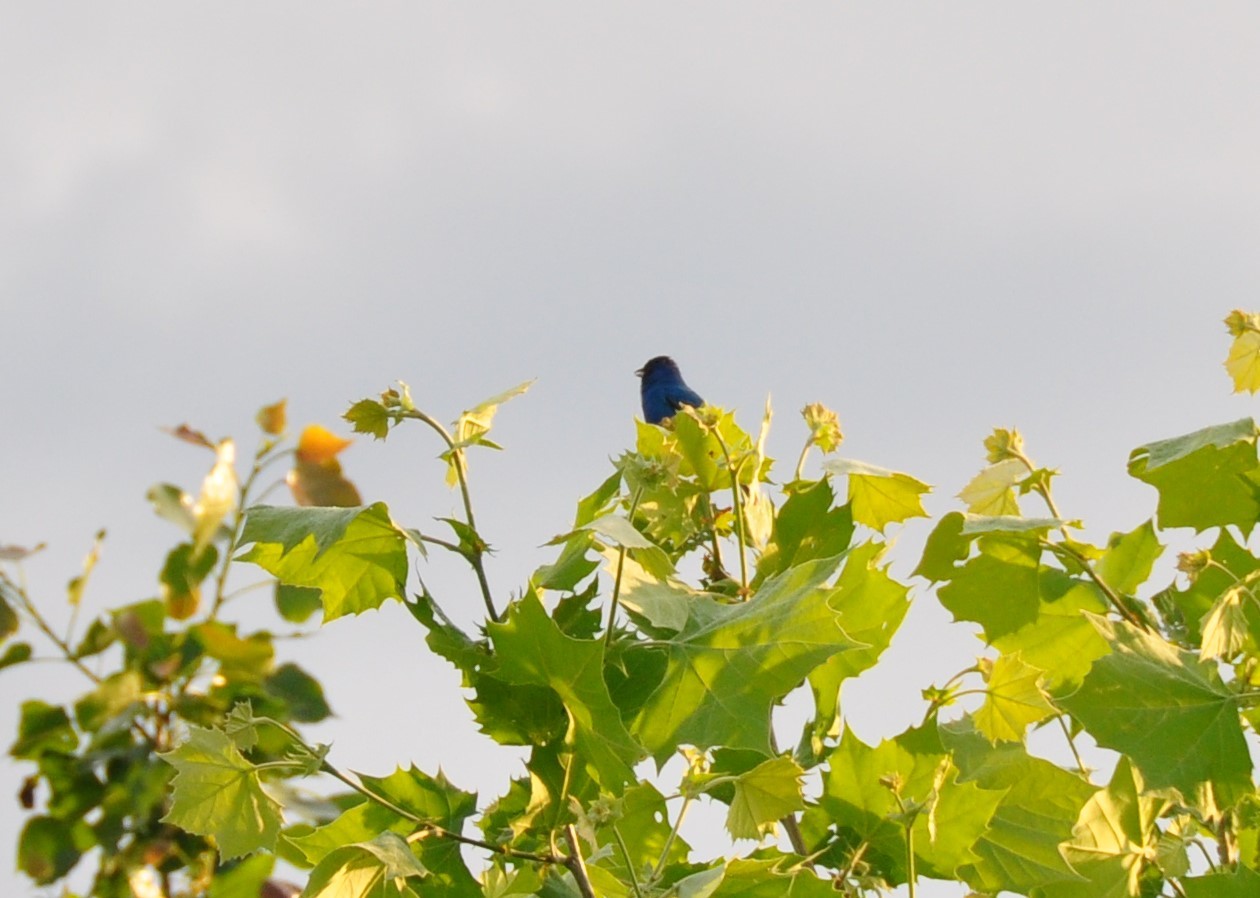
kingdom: Animalia
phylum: Chordata
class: Aves
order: Passeriformes
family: Cardinalidae
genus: Passerina
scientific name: Passerina cyanea
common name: Indigo bunting
